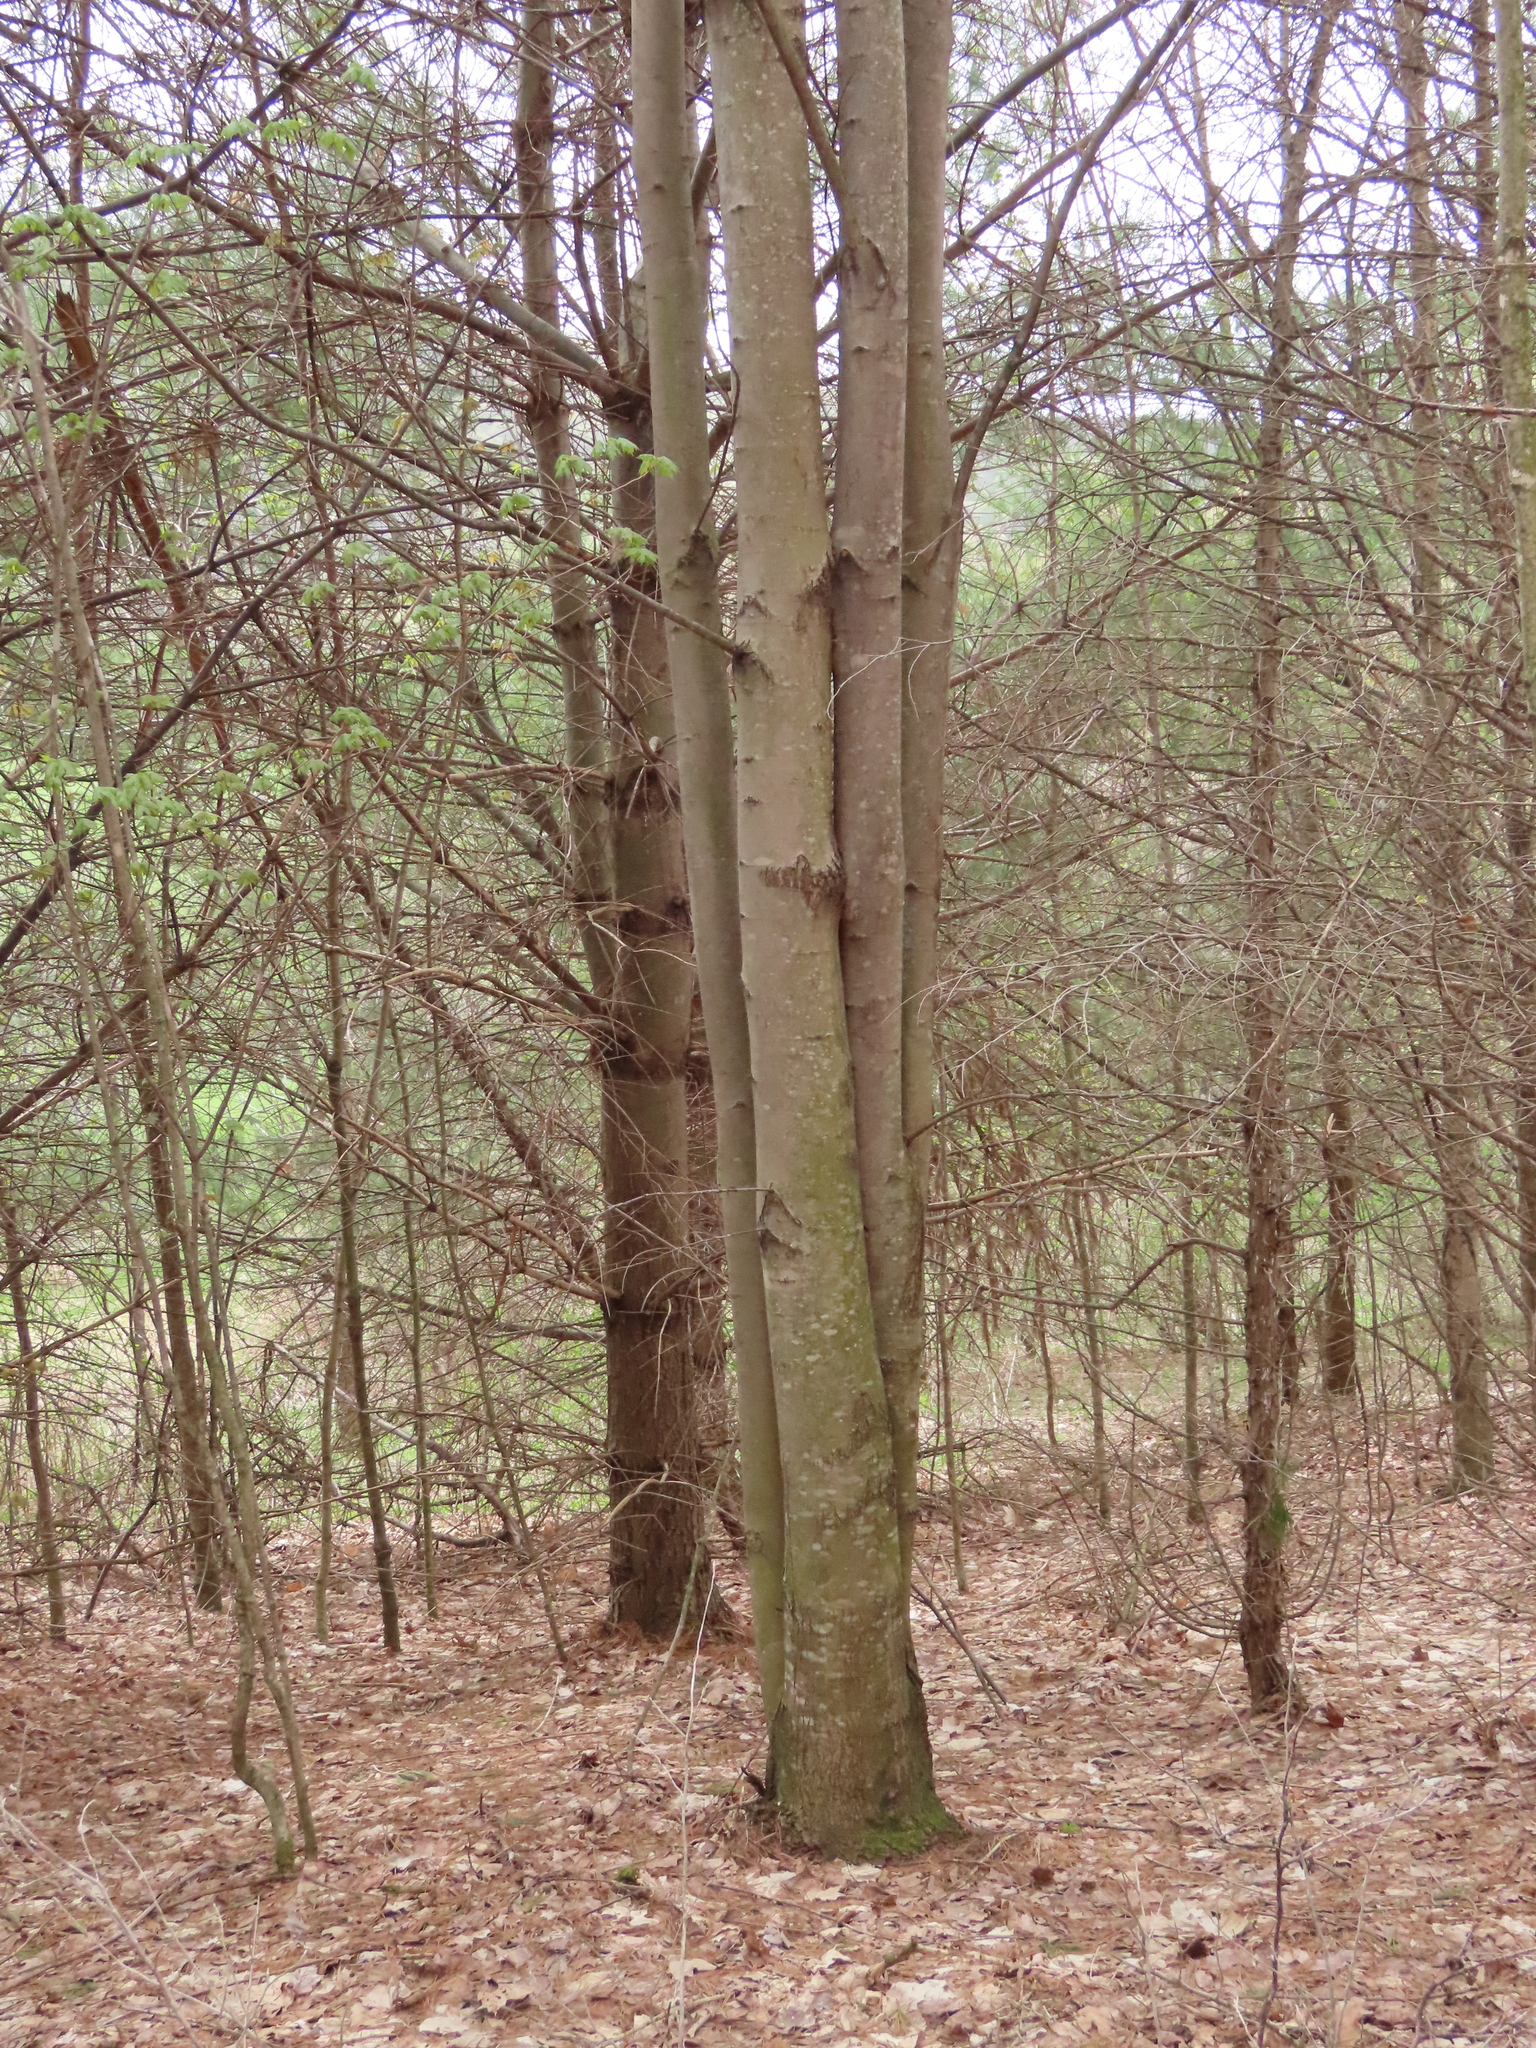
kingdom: Plantae
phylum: Tracheophyta
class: Magnoliopsida
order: Fagales
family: Fagaceae
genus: Fagus
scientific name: Fagus grandifolia
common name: American beech
